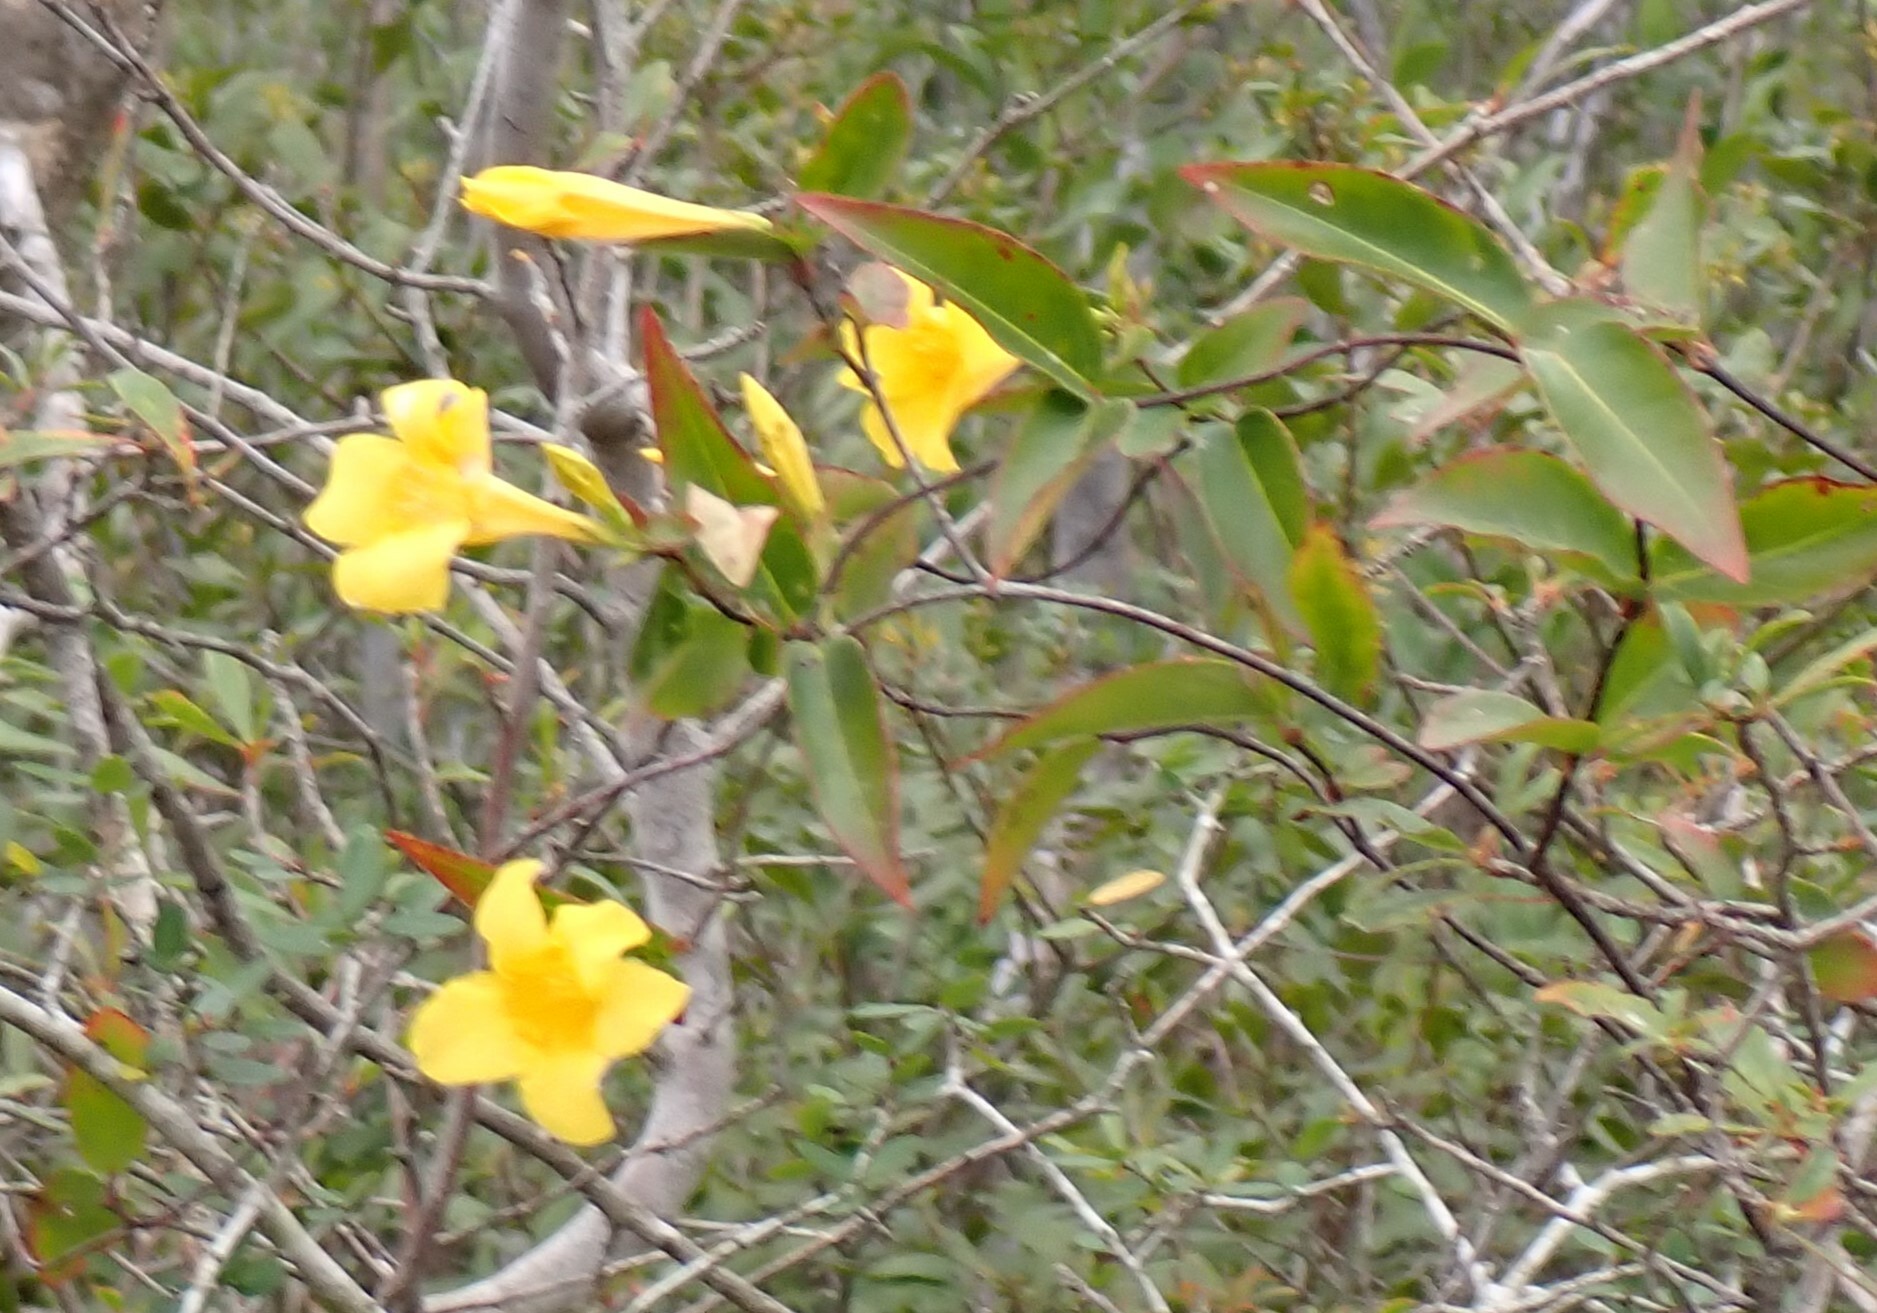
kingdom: Plantae
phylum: Tracheophyta
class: Magnoliopsida
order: Gentianales
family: Gelsemiaceae
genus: Gelsemium
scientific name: Gelsemium rankinii
